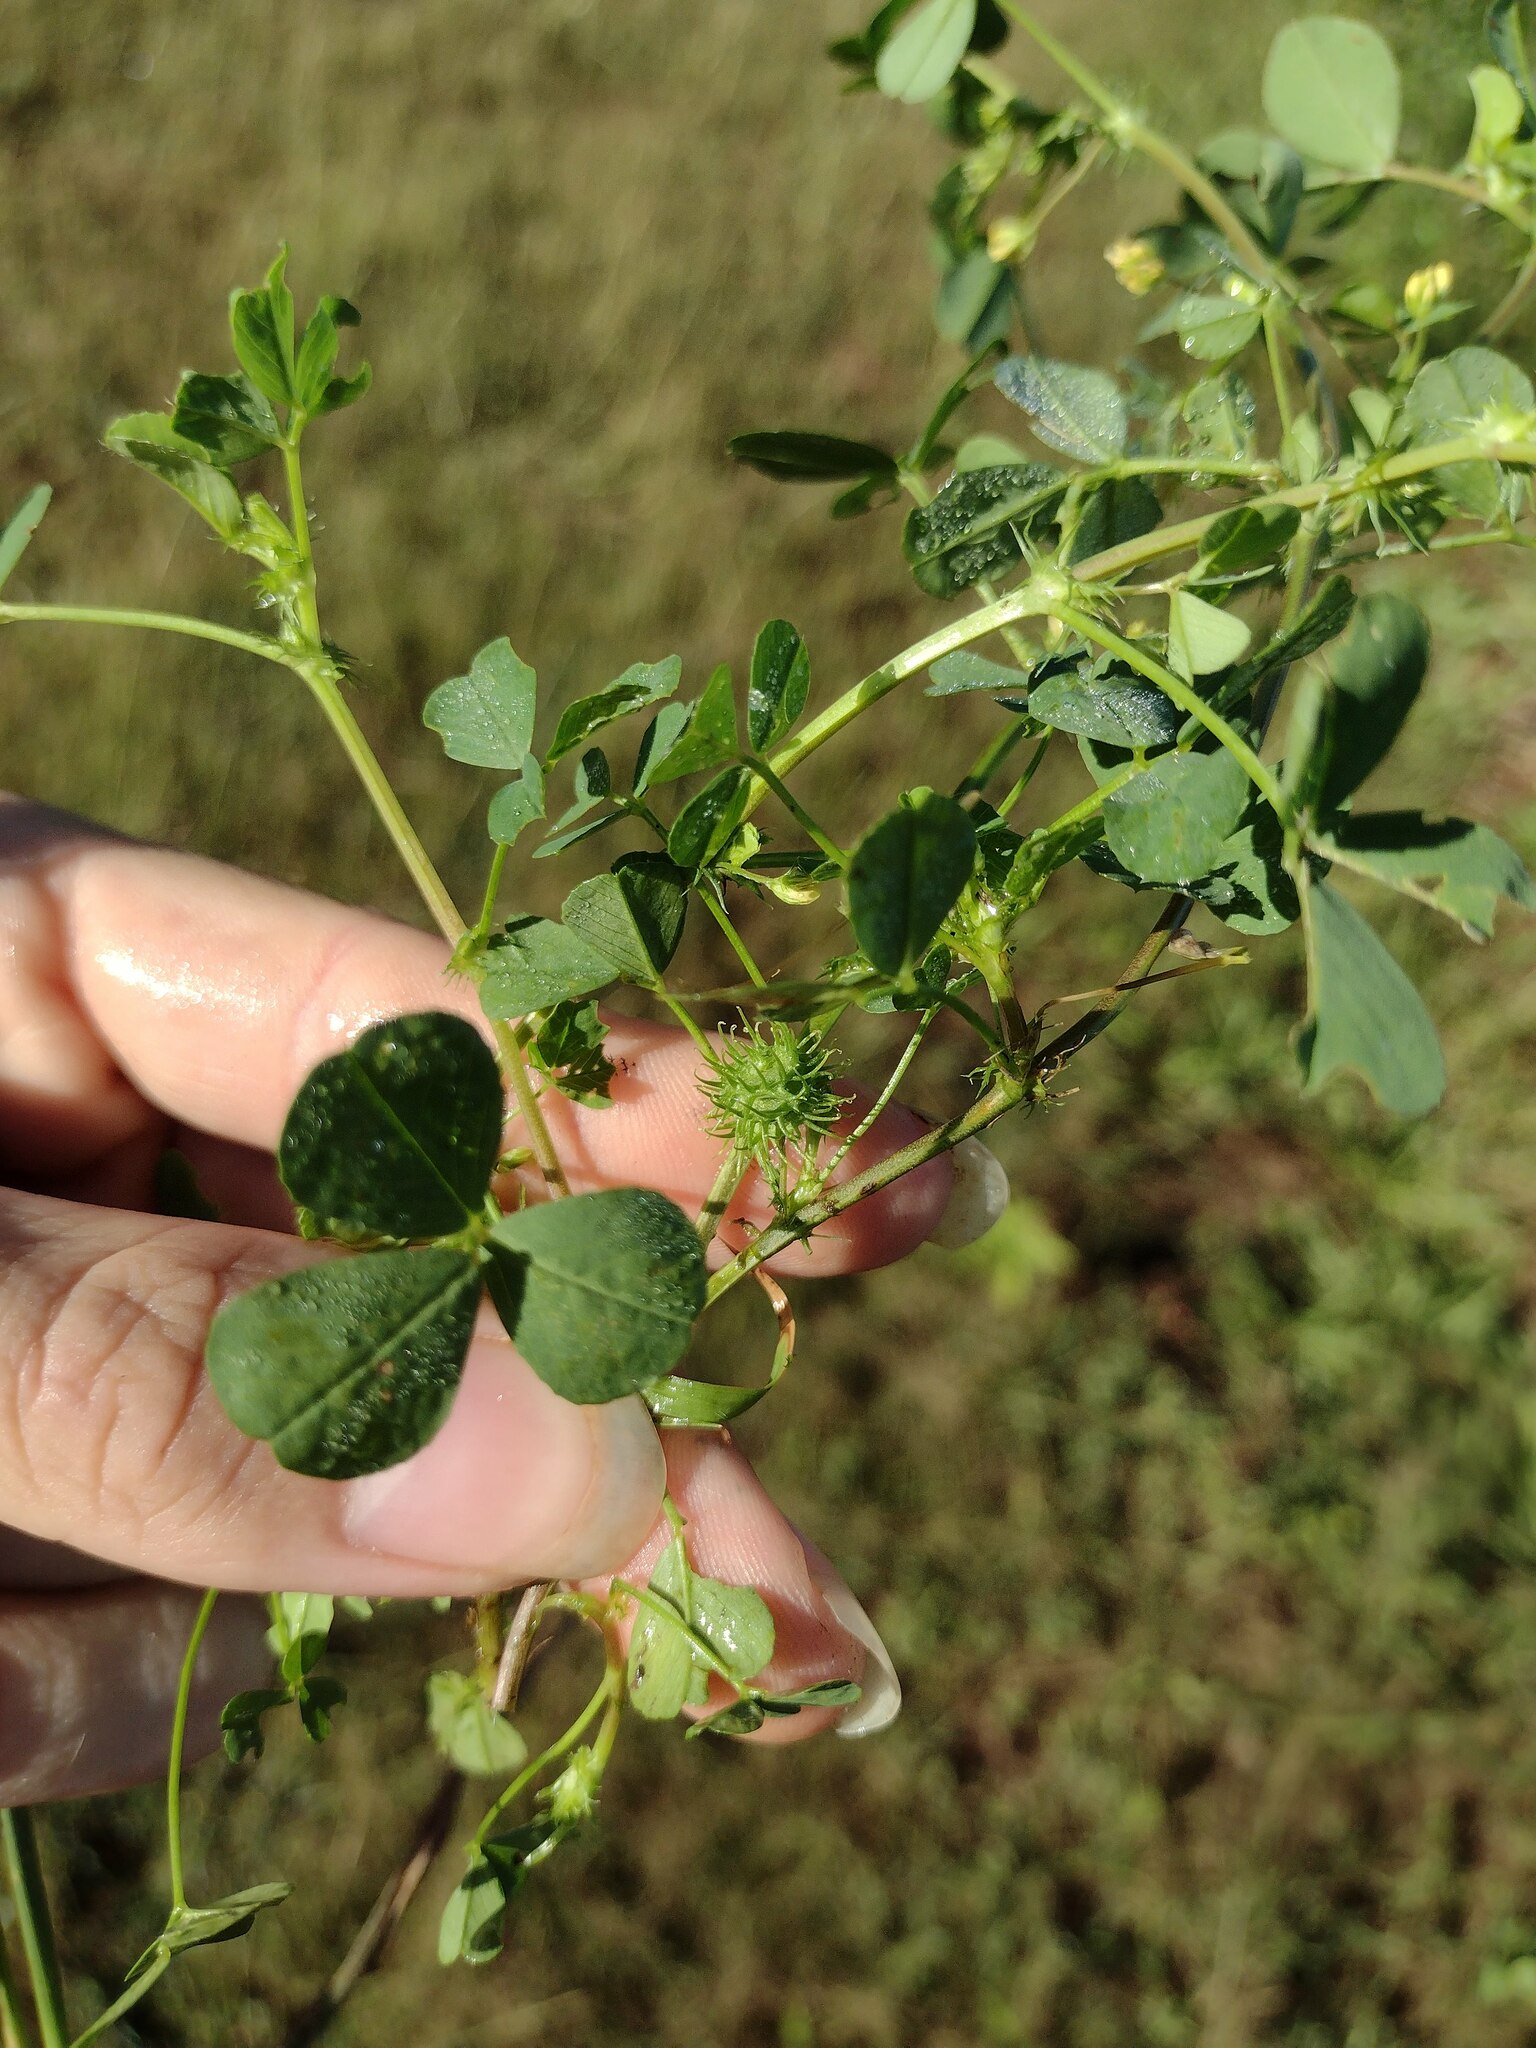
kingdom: Plantae
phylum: Tracheophyta
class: Magnoliopsida
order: Fabales
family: Fabaceae
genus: Medicago
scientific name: Medicago polymorpha
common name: Burclover
